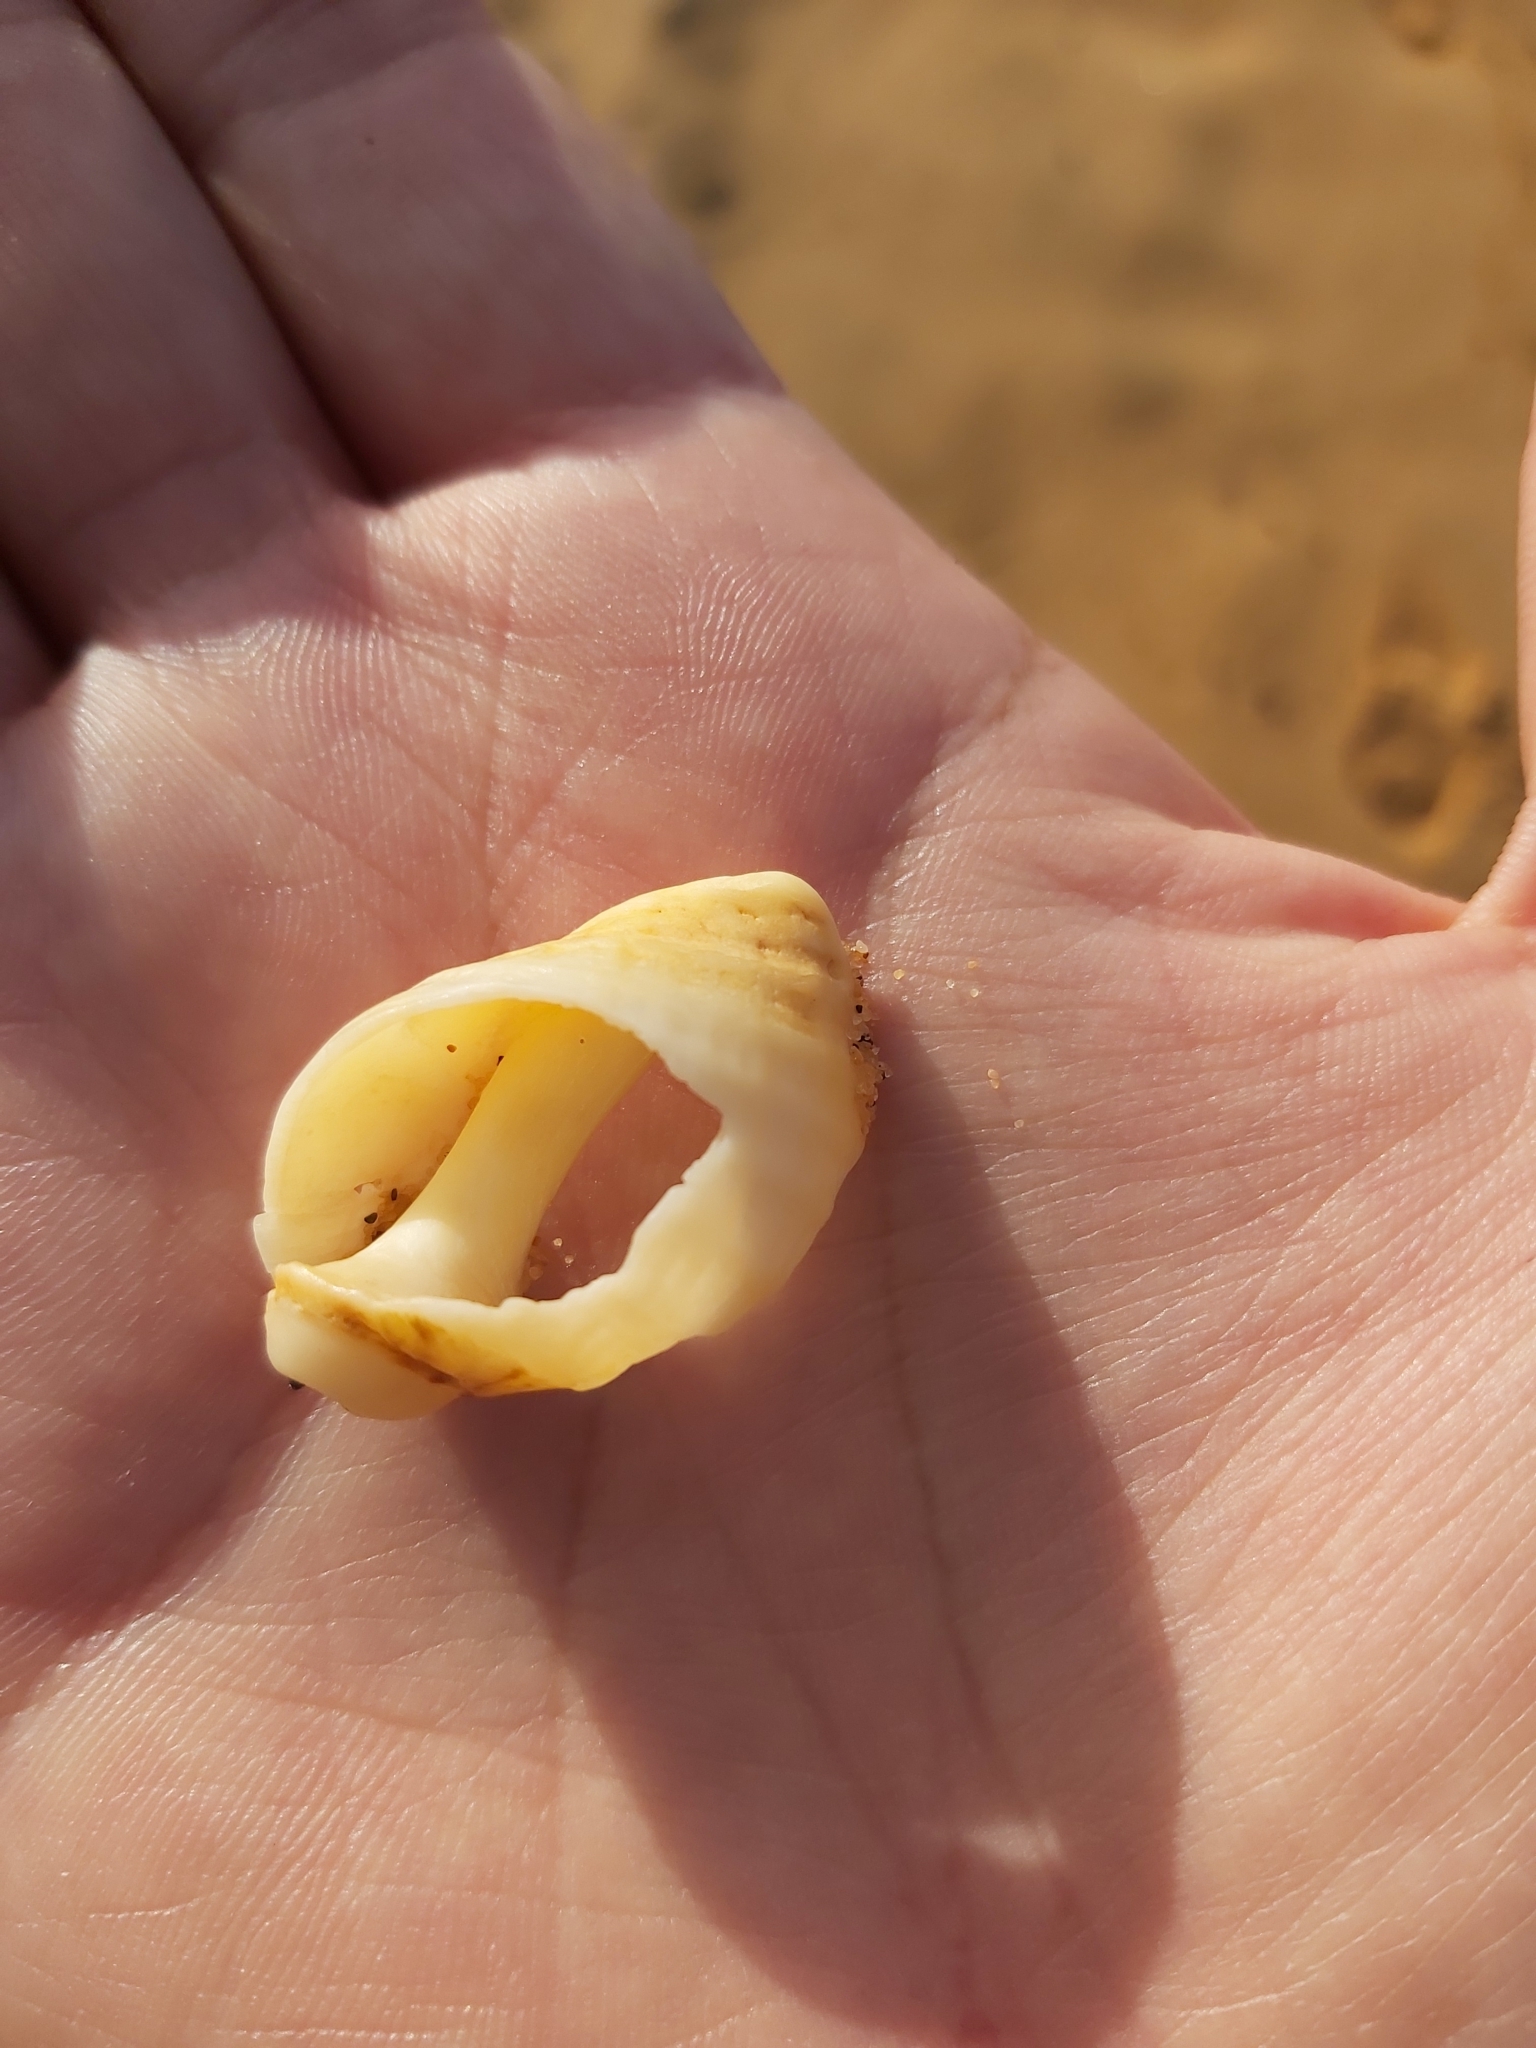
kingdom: Animalia
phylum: Mollusca
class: Gastropoda
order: Neogastropoda
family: Muricidae
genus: Dicathais
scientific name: Dicathais orbita
